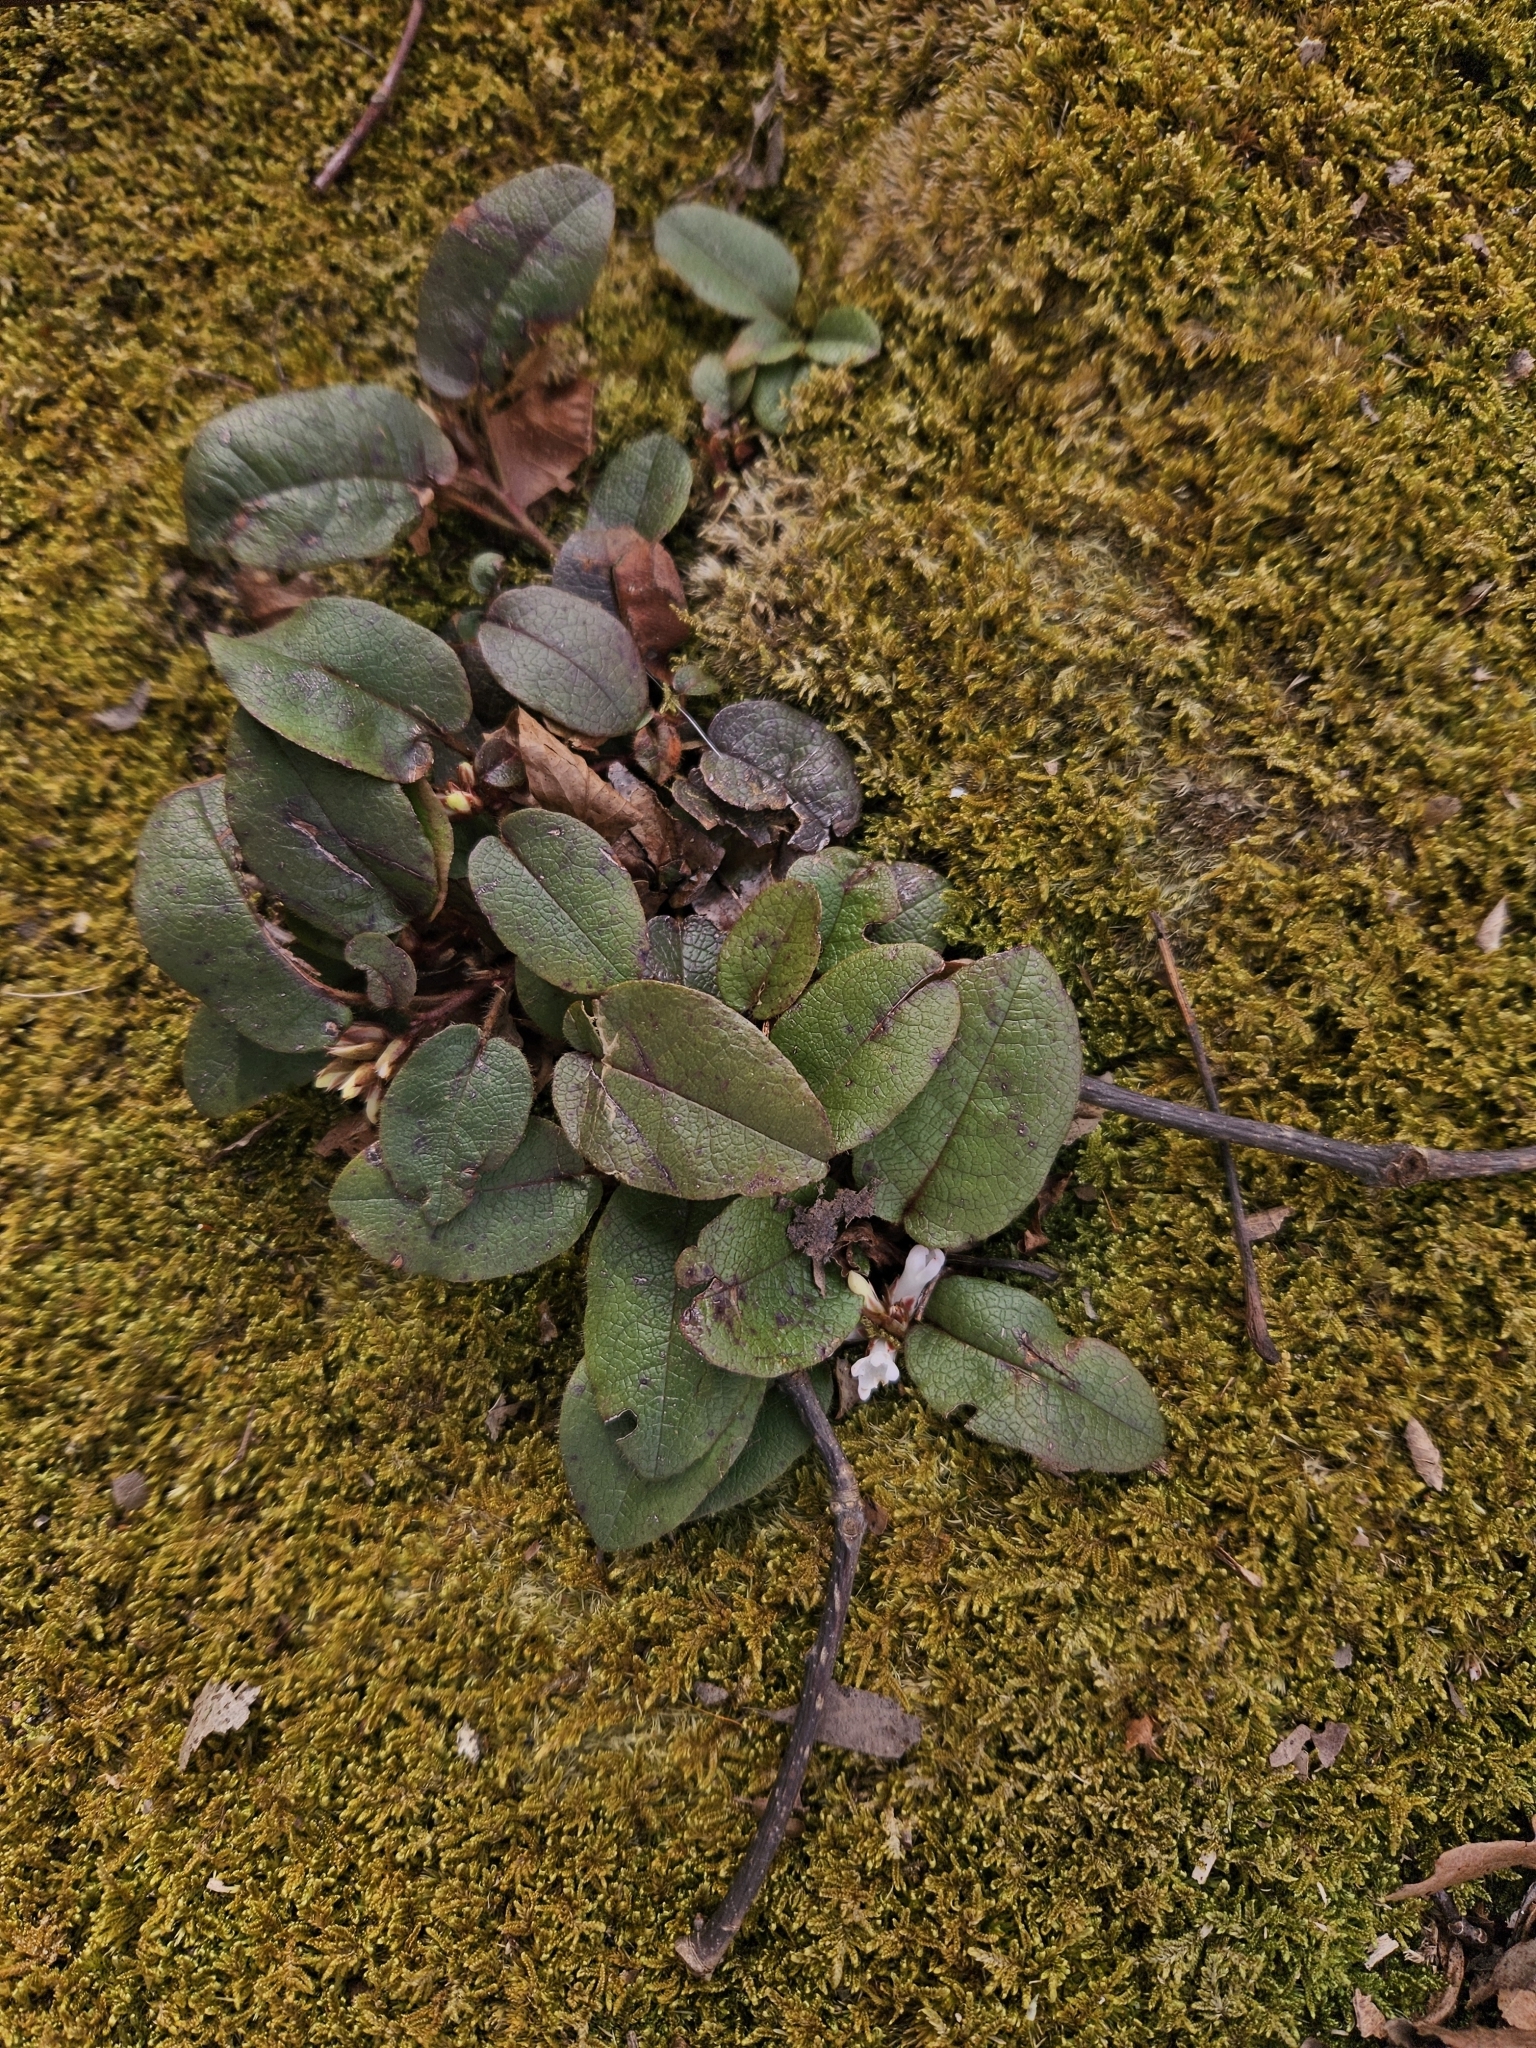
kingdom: Plantae
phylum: Tracheophyta
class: Magnoliopsida
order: Ericales
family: Ericaceae
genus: Epigaea
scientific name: Epigaea repens
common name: Gravelroot
